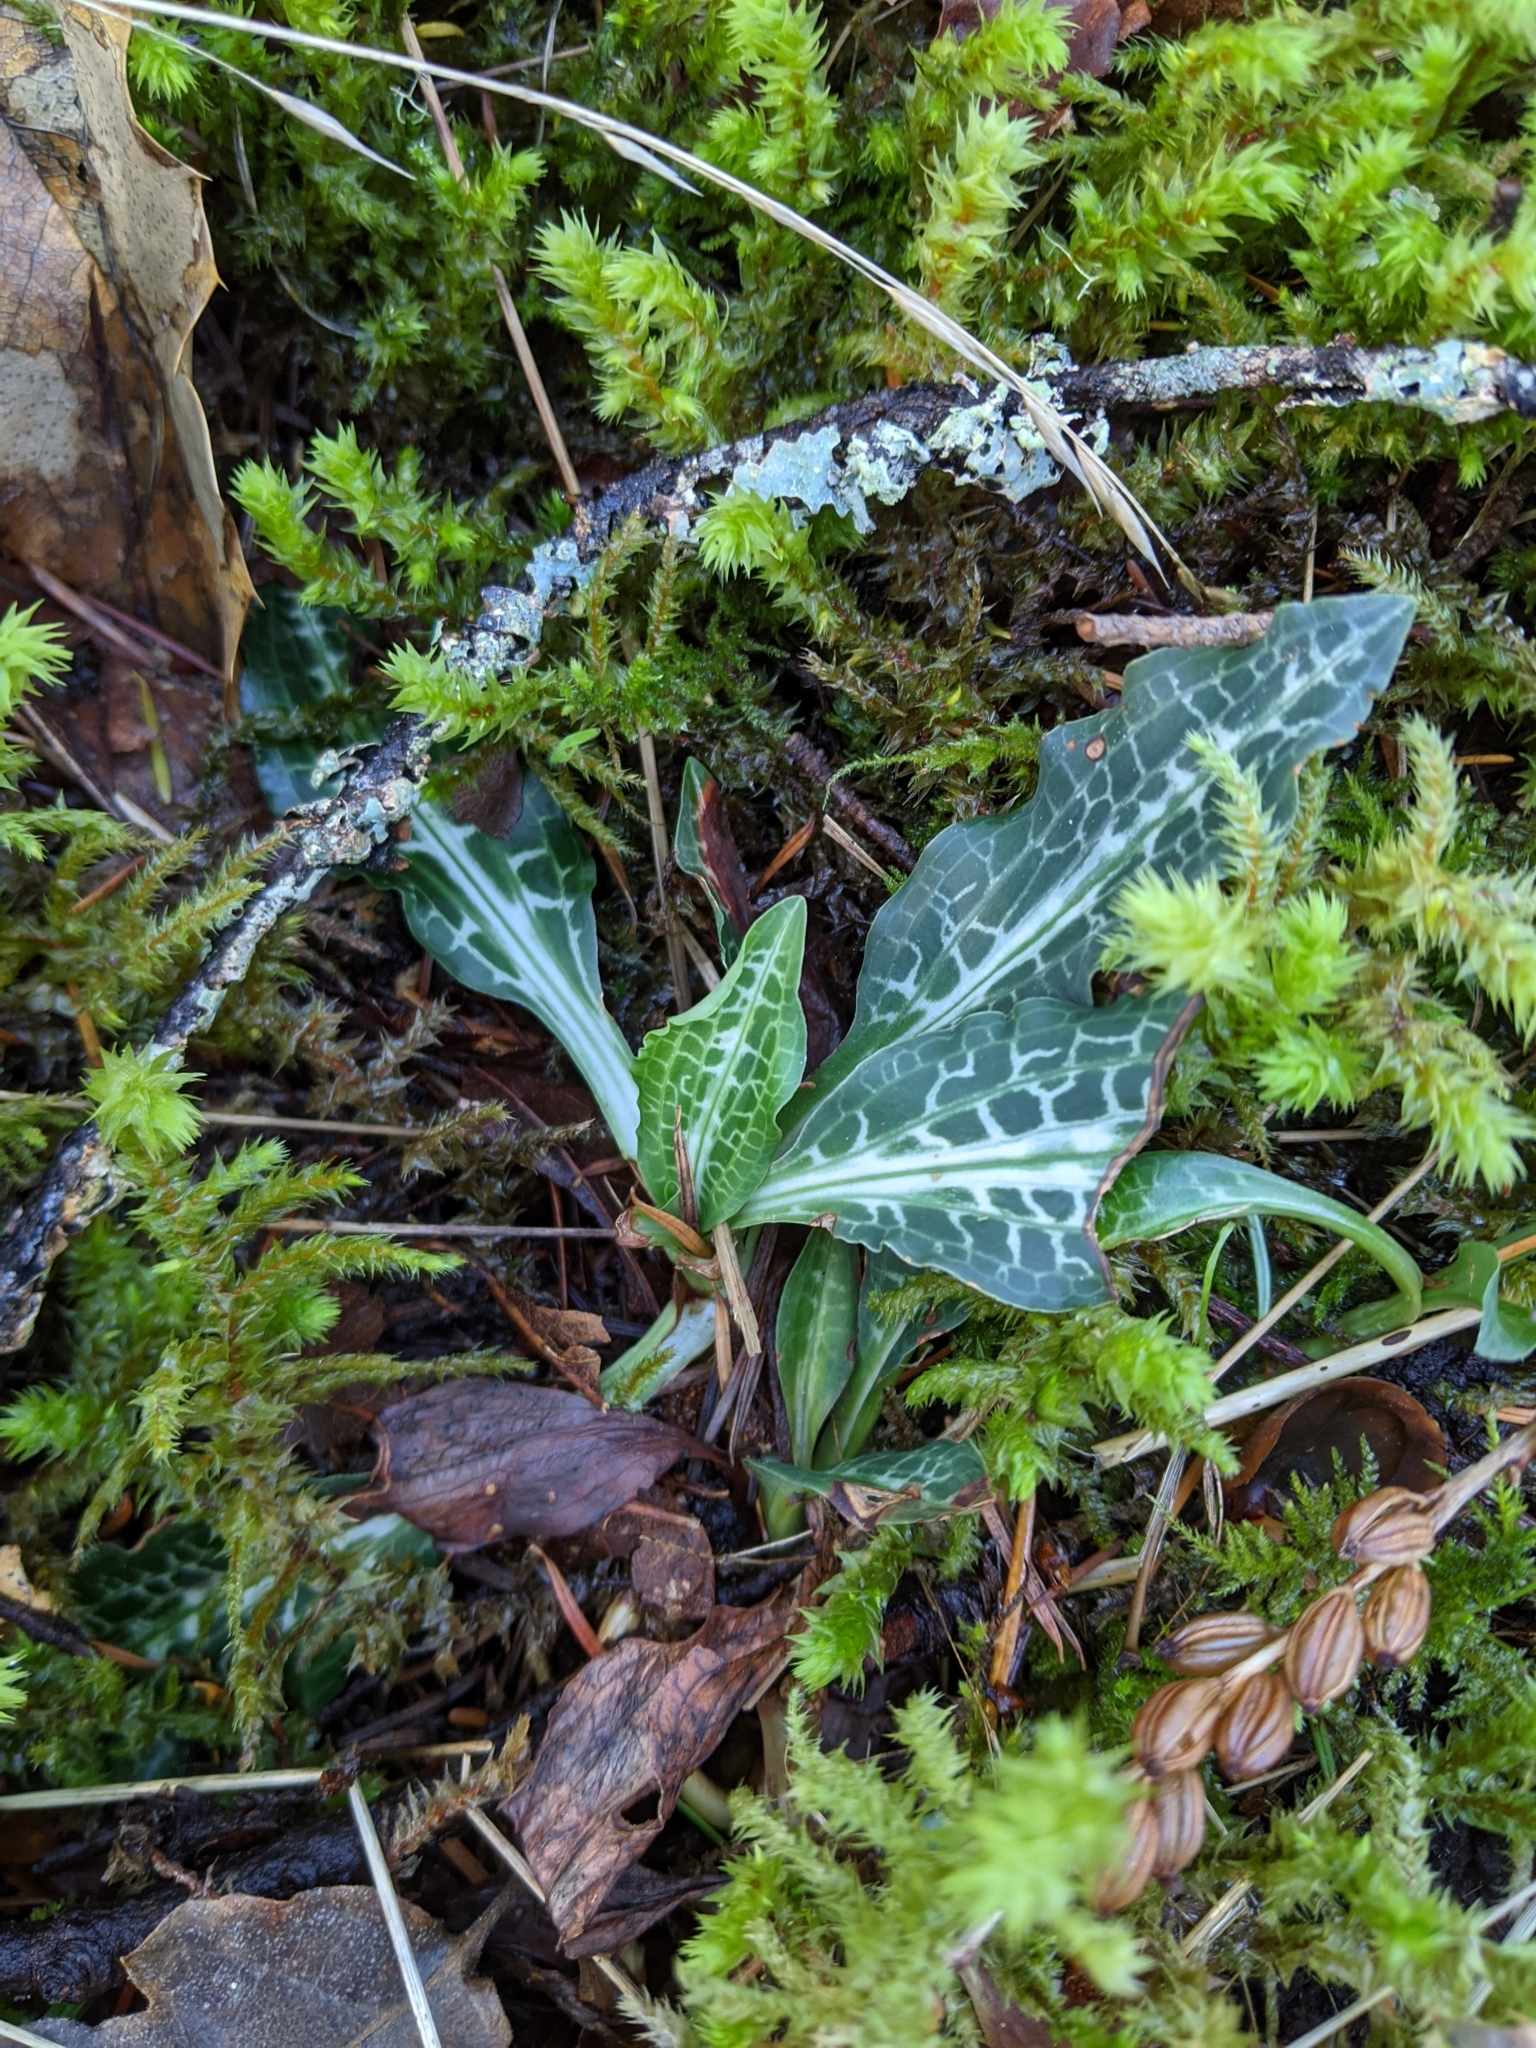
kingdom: Plantae
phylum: Tracheophyta
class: Liliopsida
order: Asparagales
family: Orchidaceae
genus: Goodyera
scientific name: Goodyera oblongifolia
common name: Giant rattlesnake-plantain
